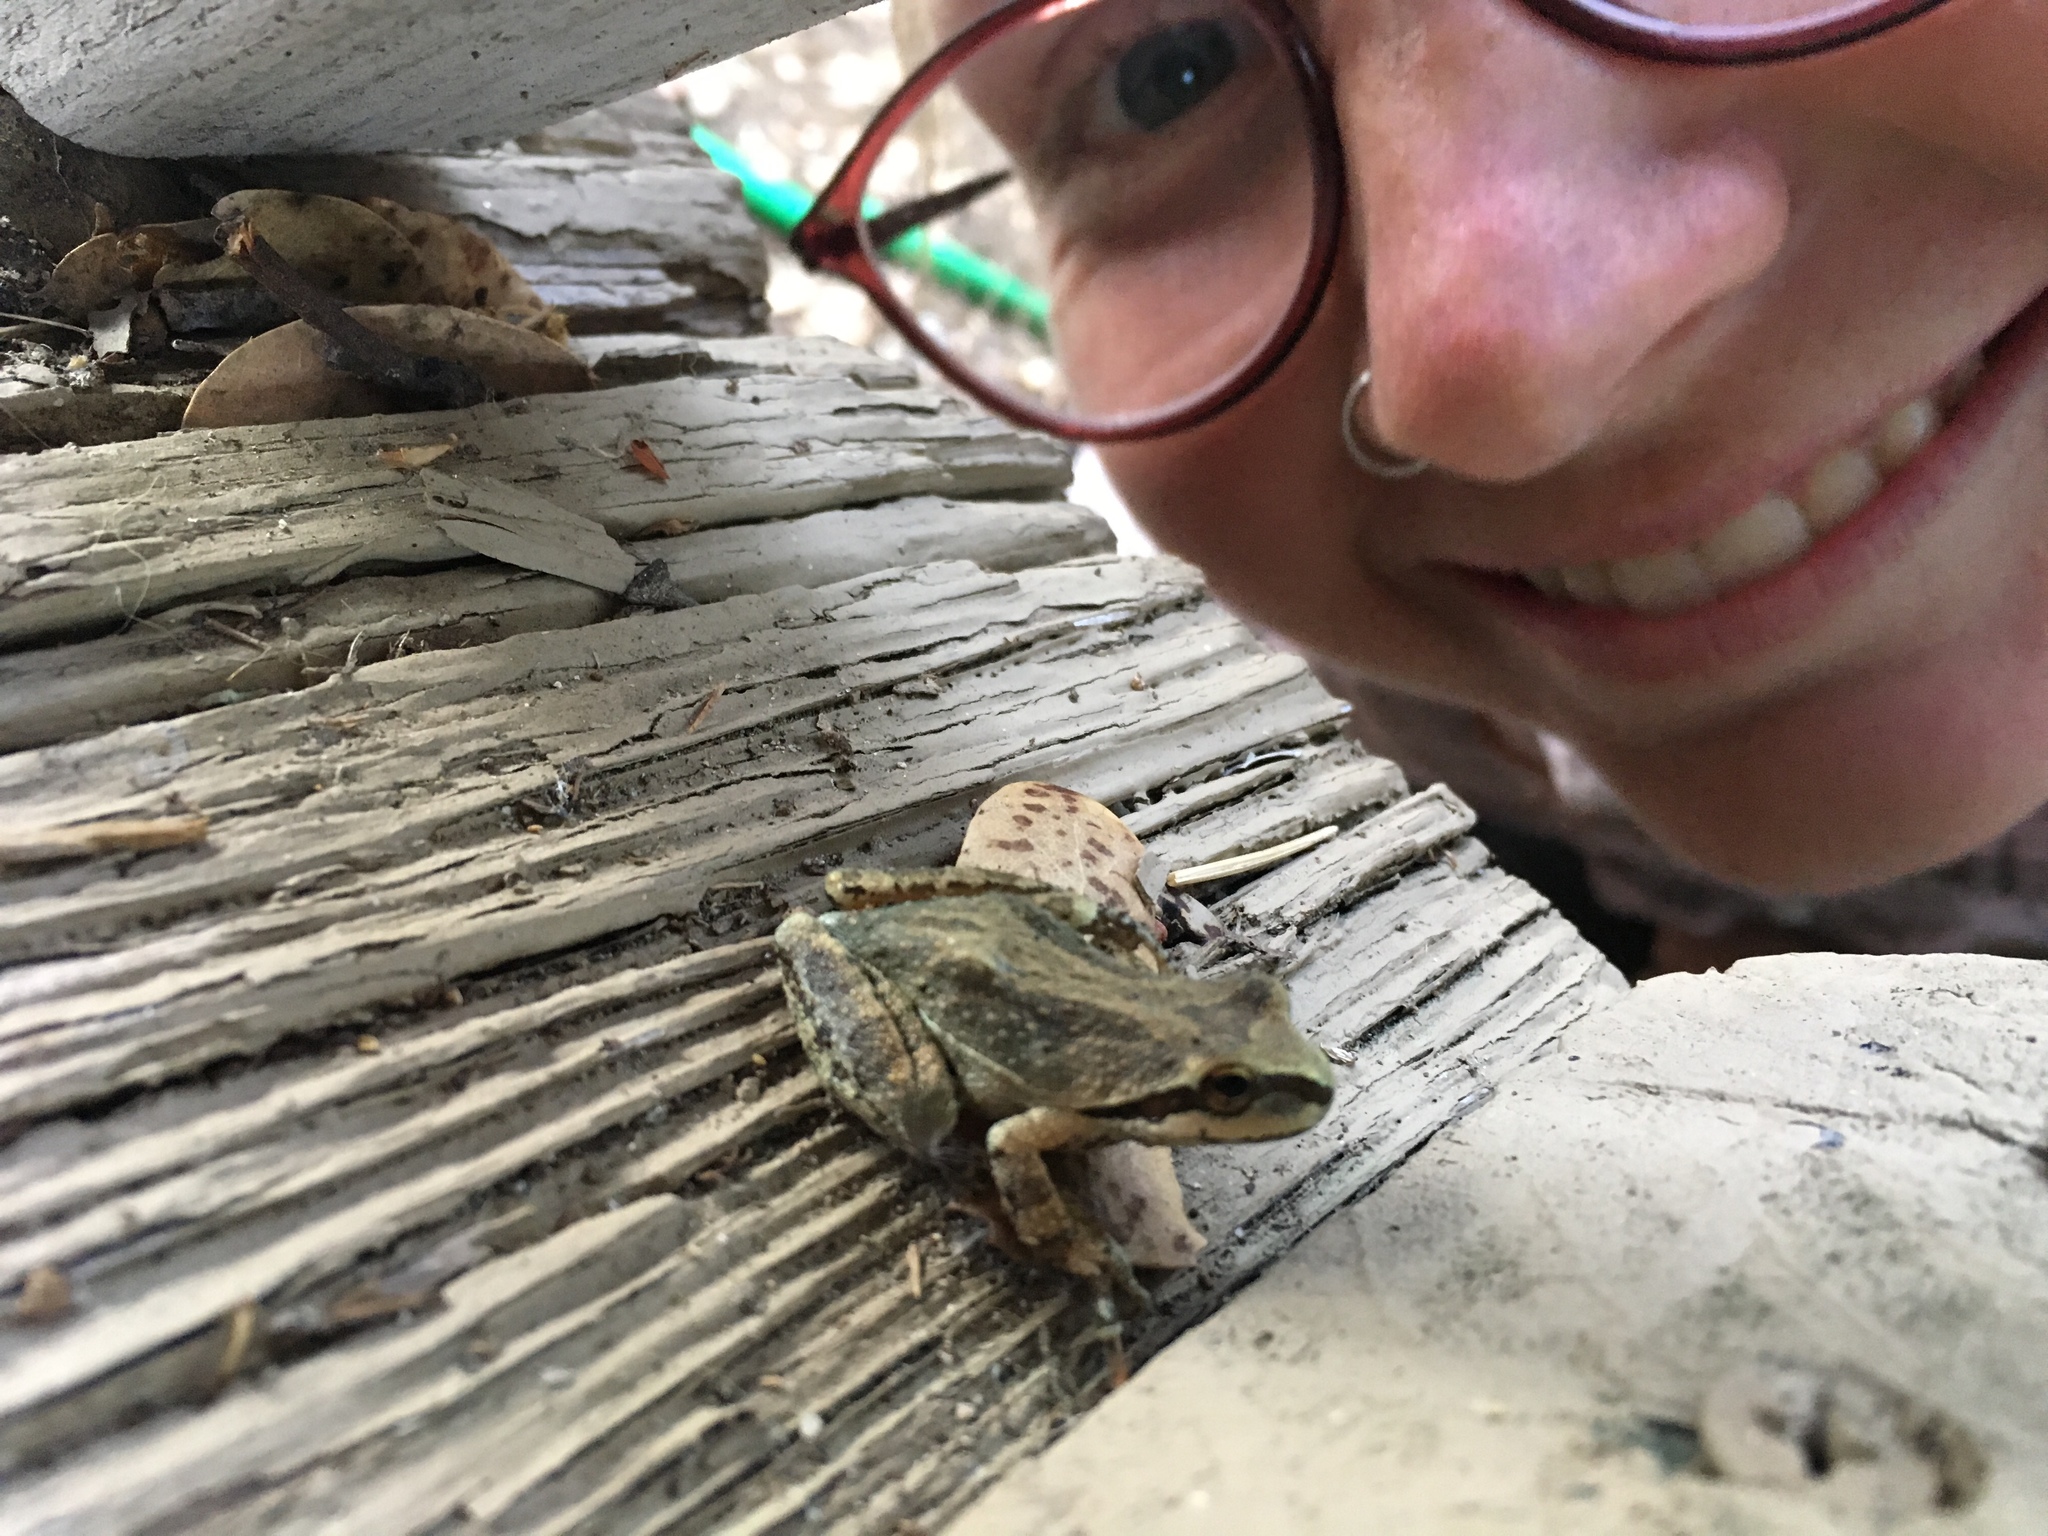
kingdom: Animalia
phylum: Chordata
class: Amphibia
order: Anura
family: Hylidae
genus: Pseudacris
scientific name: Pseudacris regilla
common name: Pacific chorus frog
